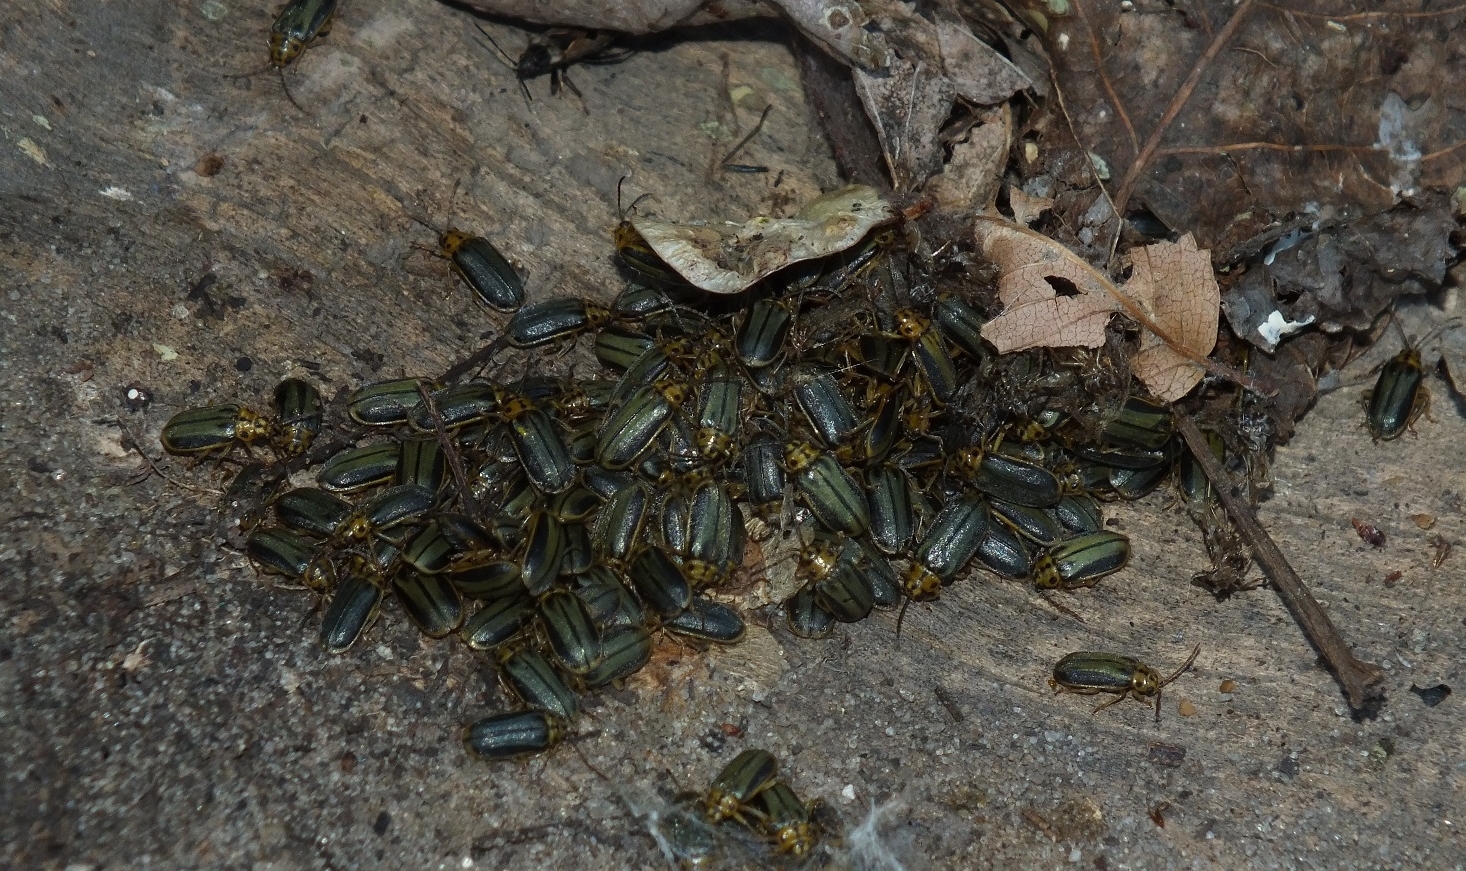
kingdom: Animalia
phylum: Arthropoda
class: Insecta
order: Coleoptera
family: Chrysomelidae
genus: Xanthogaleruca
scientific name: Xanthogaleruca luteola
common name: Elm leaf beetle
